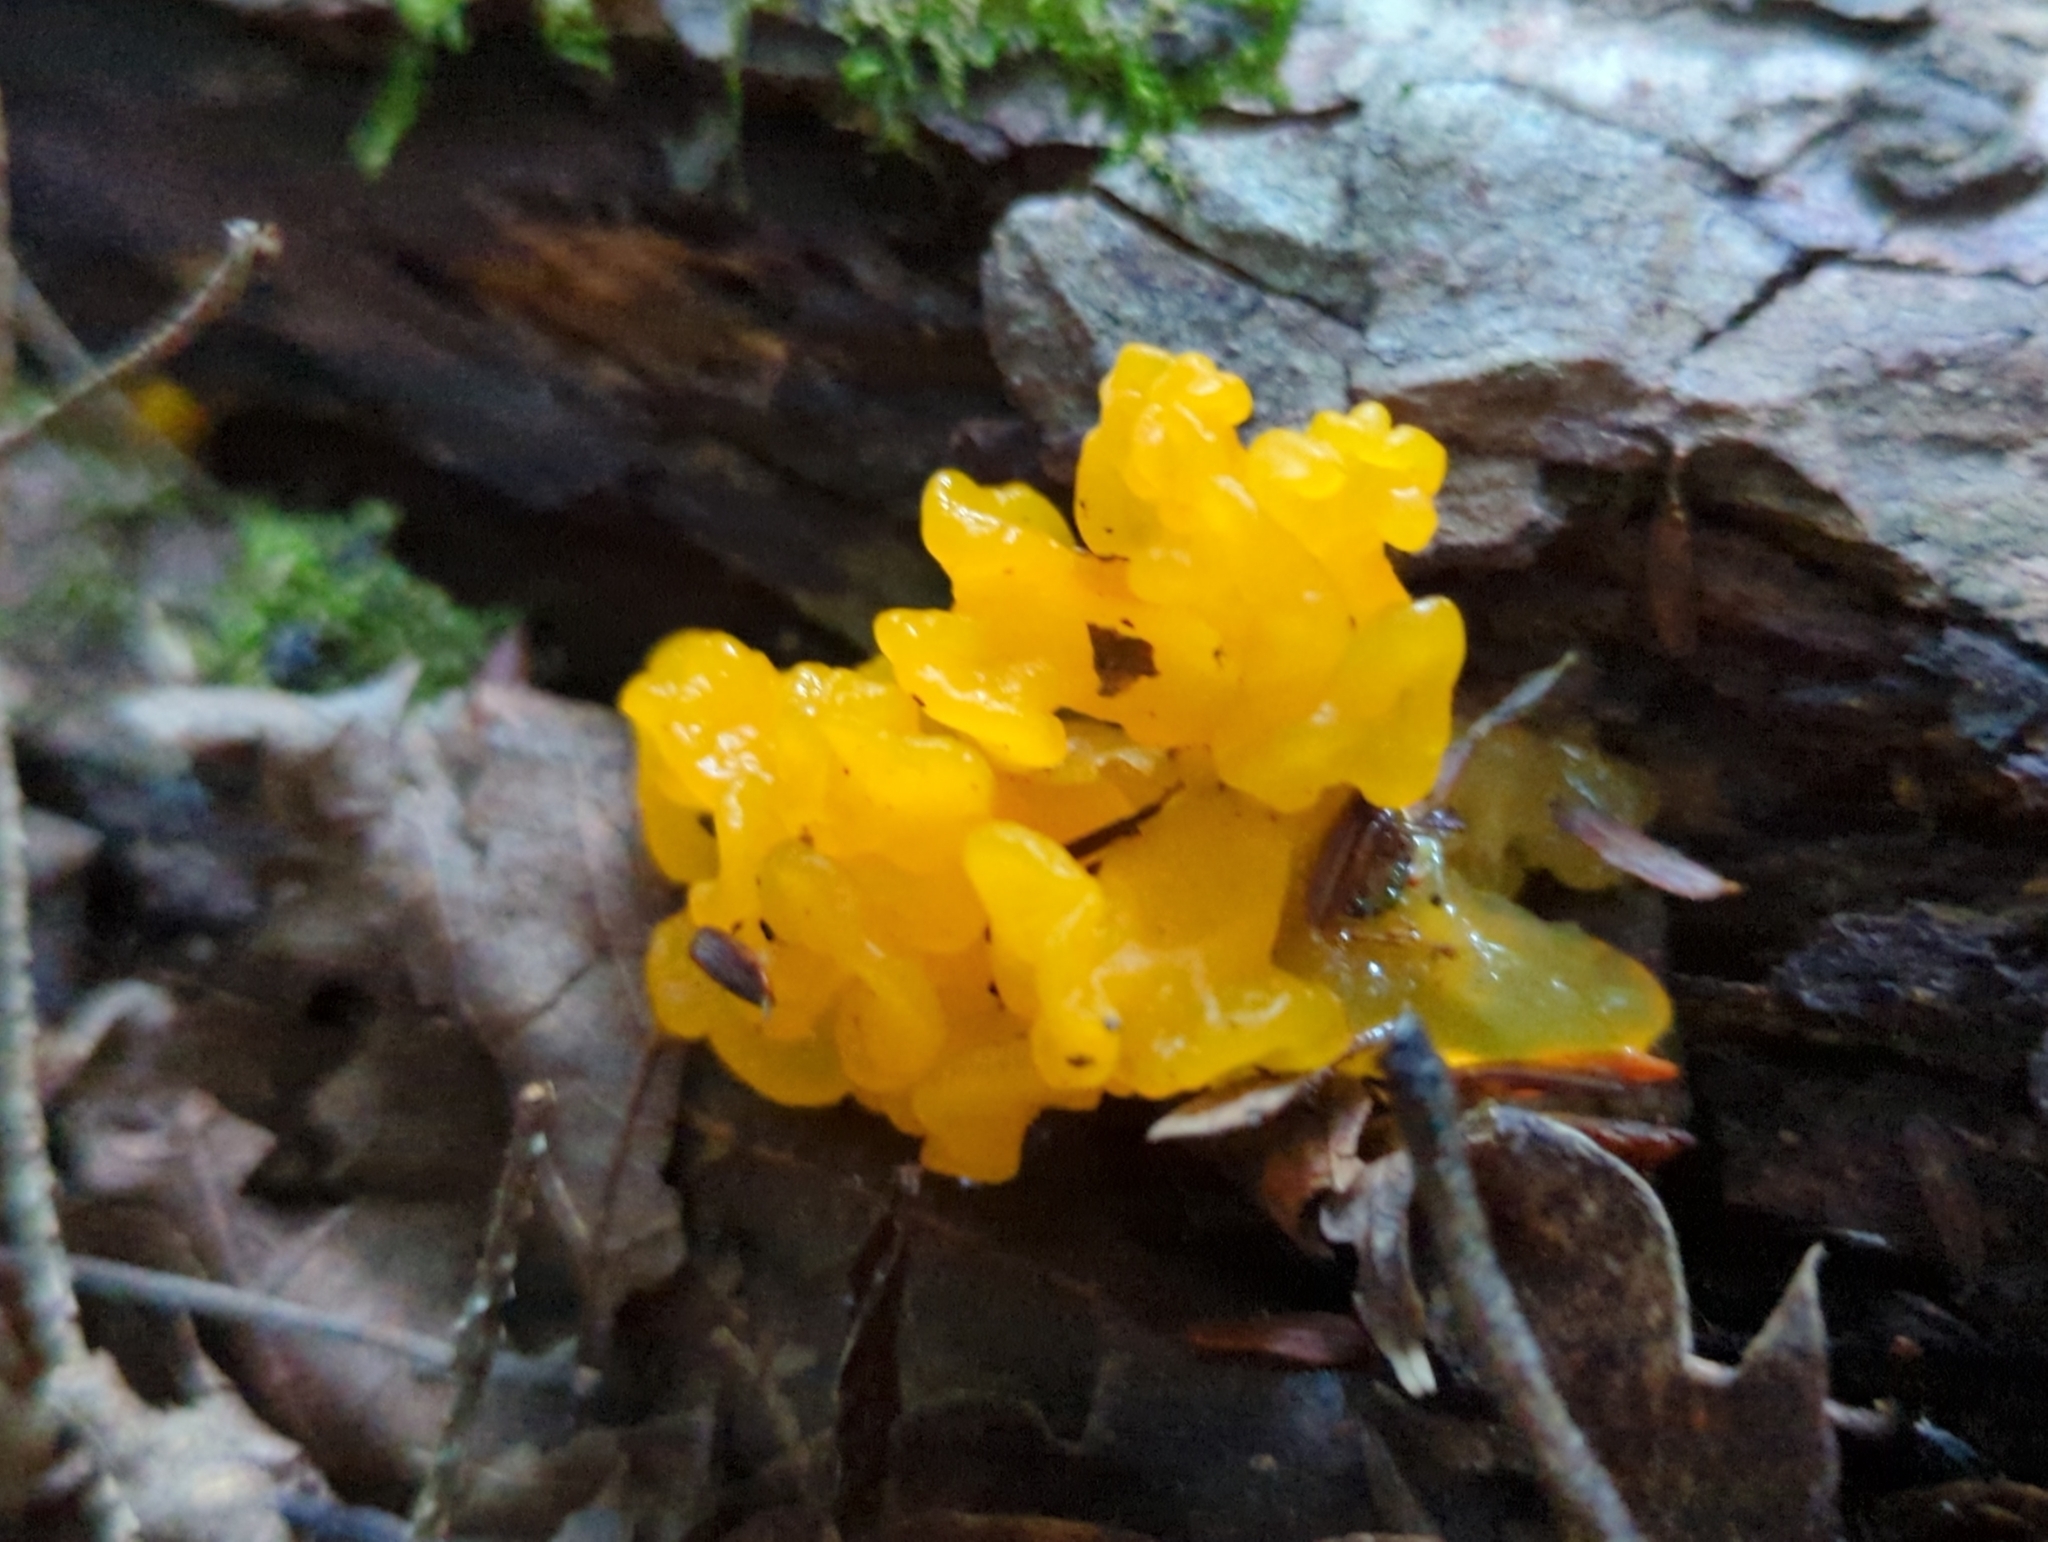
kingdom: Fungi
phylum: Basidiomycota
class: Tremellomycetes
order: Tremellales
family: Tremellaceae
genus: Tremella
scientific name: Tremella mesenterica
